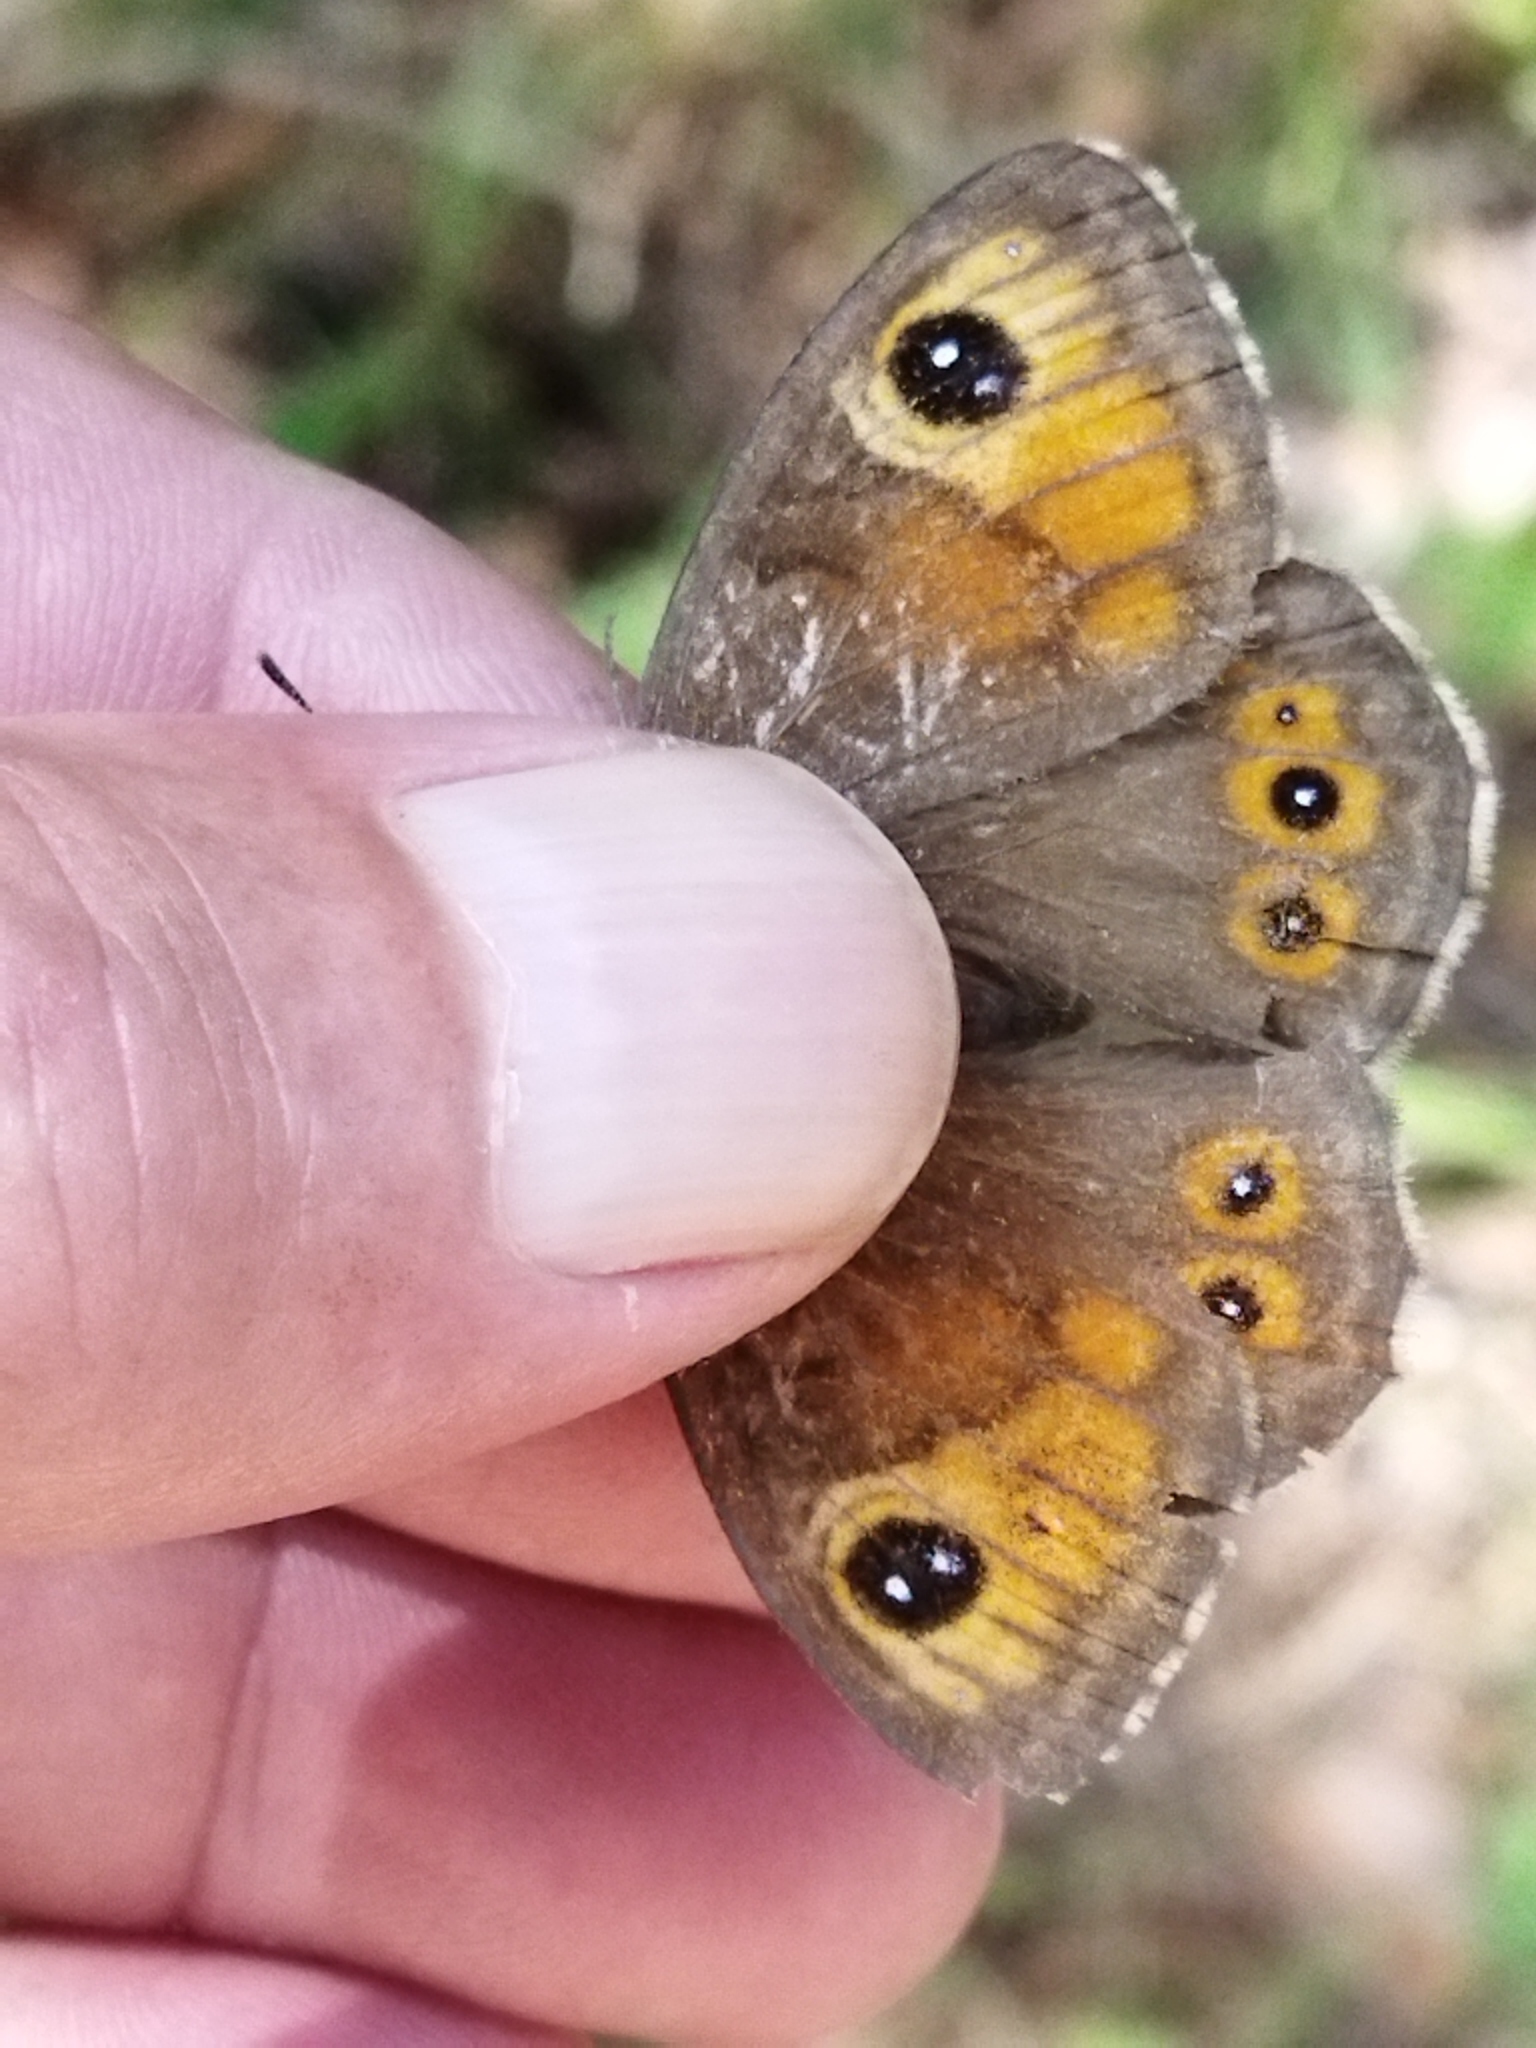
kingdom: Animalia
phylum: Arthropoda
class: Insecta
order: Lepidoptera
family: Nymphalidae
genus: Pararge
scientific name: Pararge Lasiommata maera
